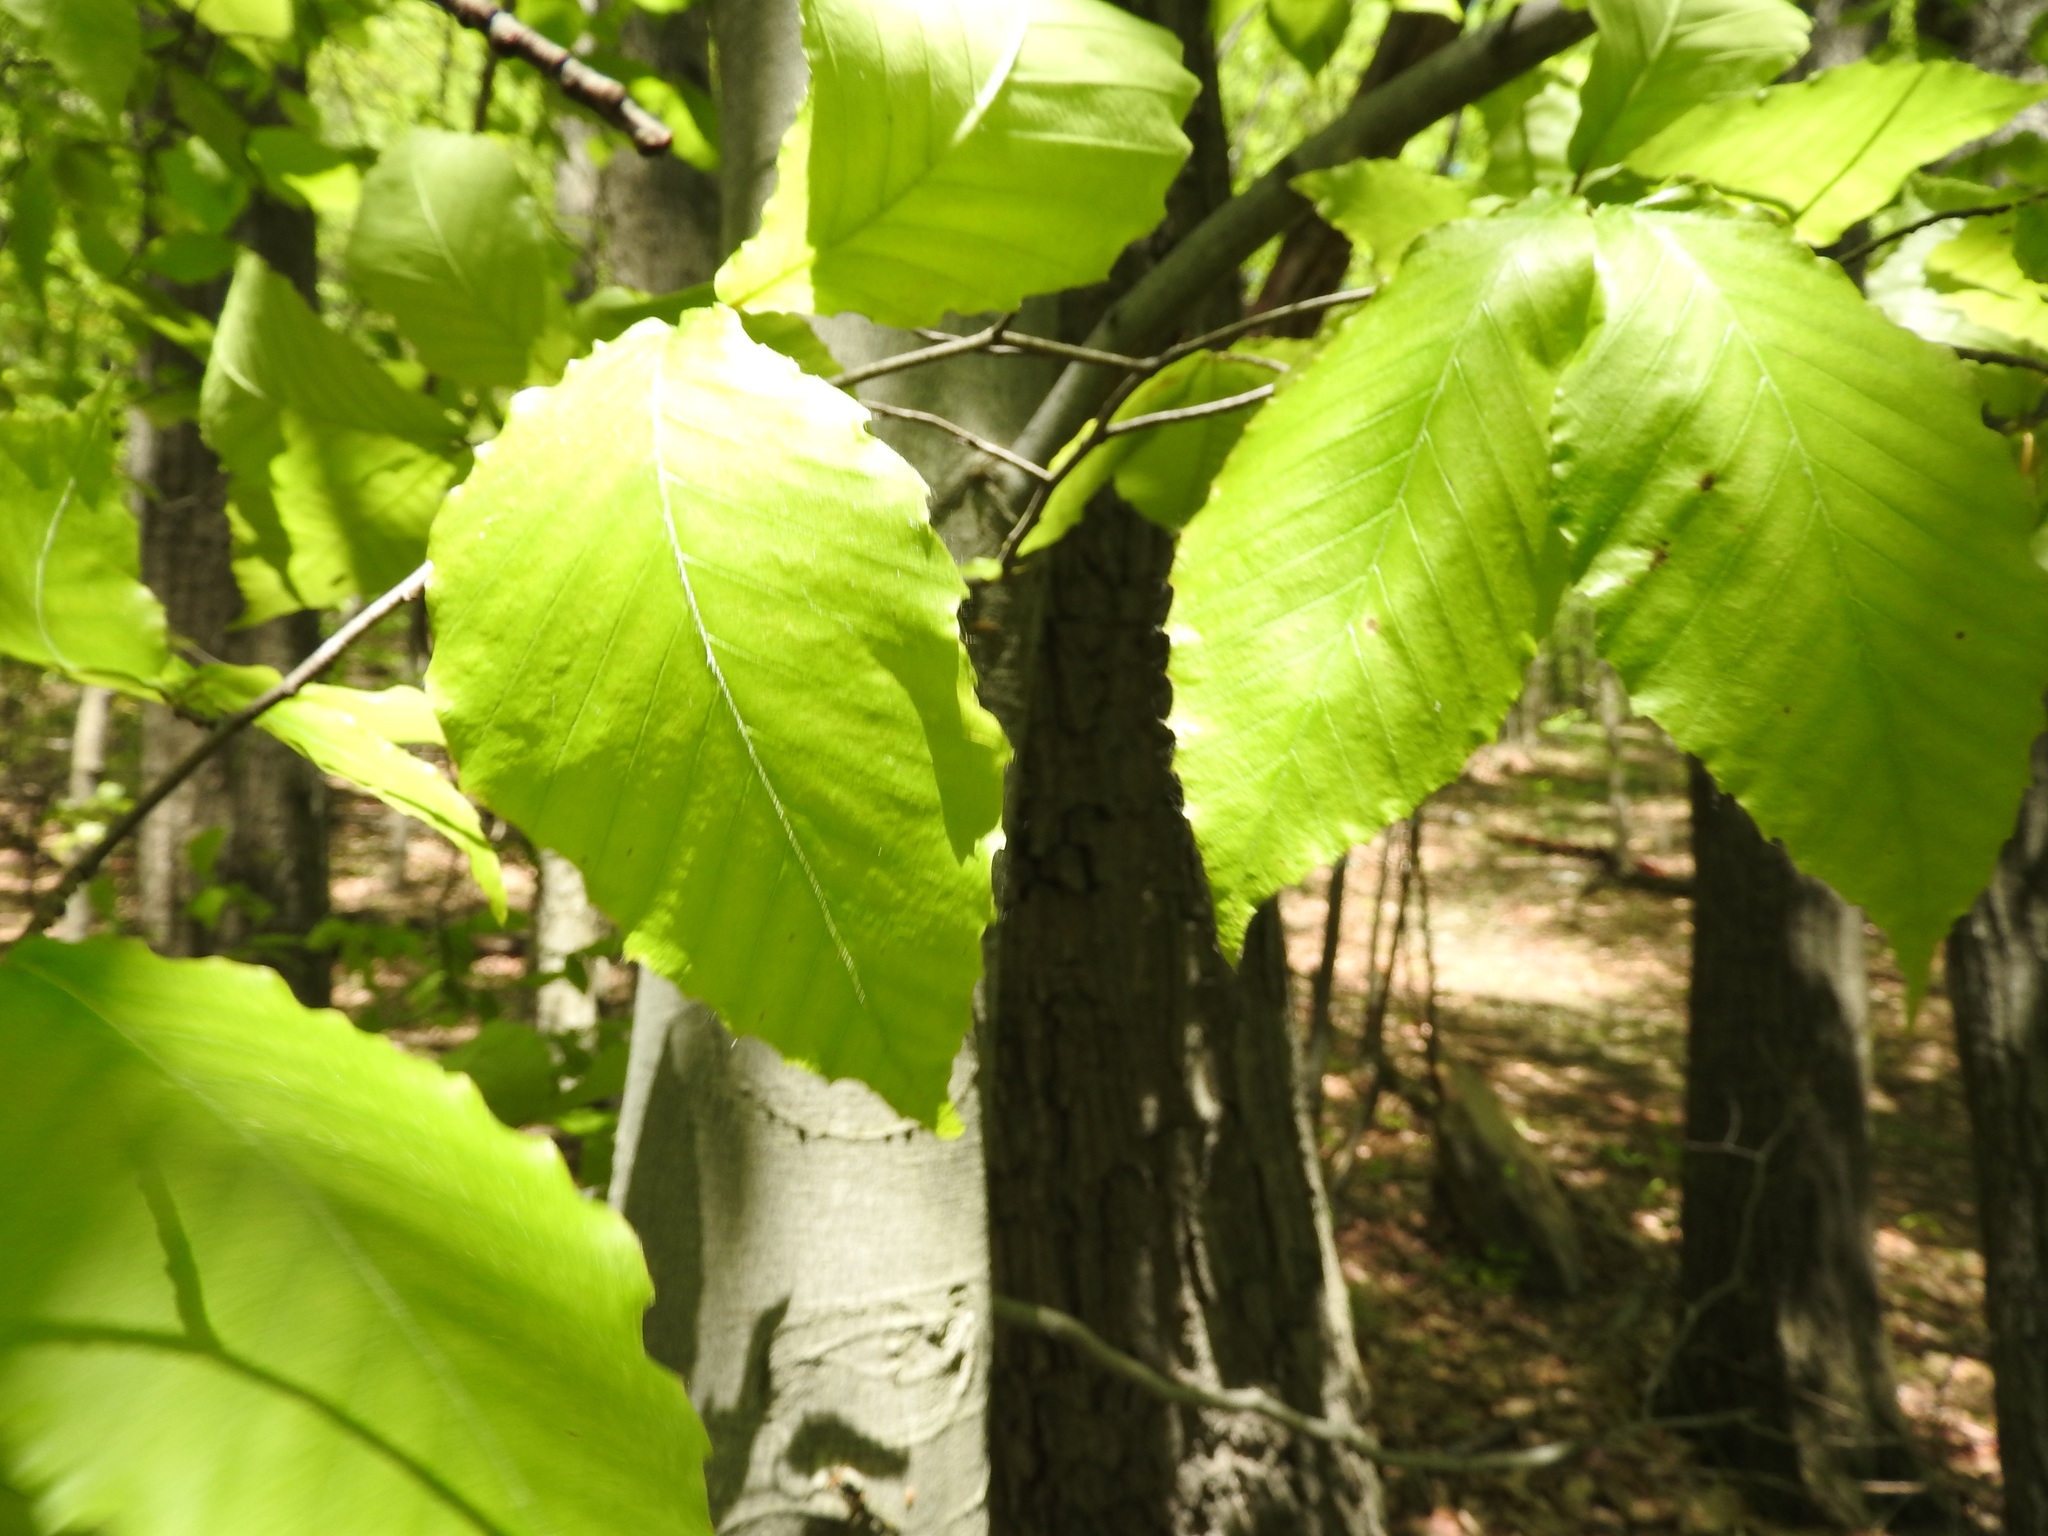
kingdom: Plantae
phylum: Tracheophyta
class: Magnoliopsida
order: Fagales
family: Fagaceae
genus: Fagus
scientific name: Fagus grandifolia
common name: American beech
